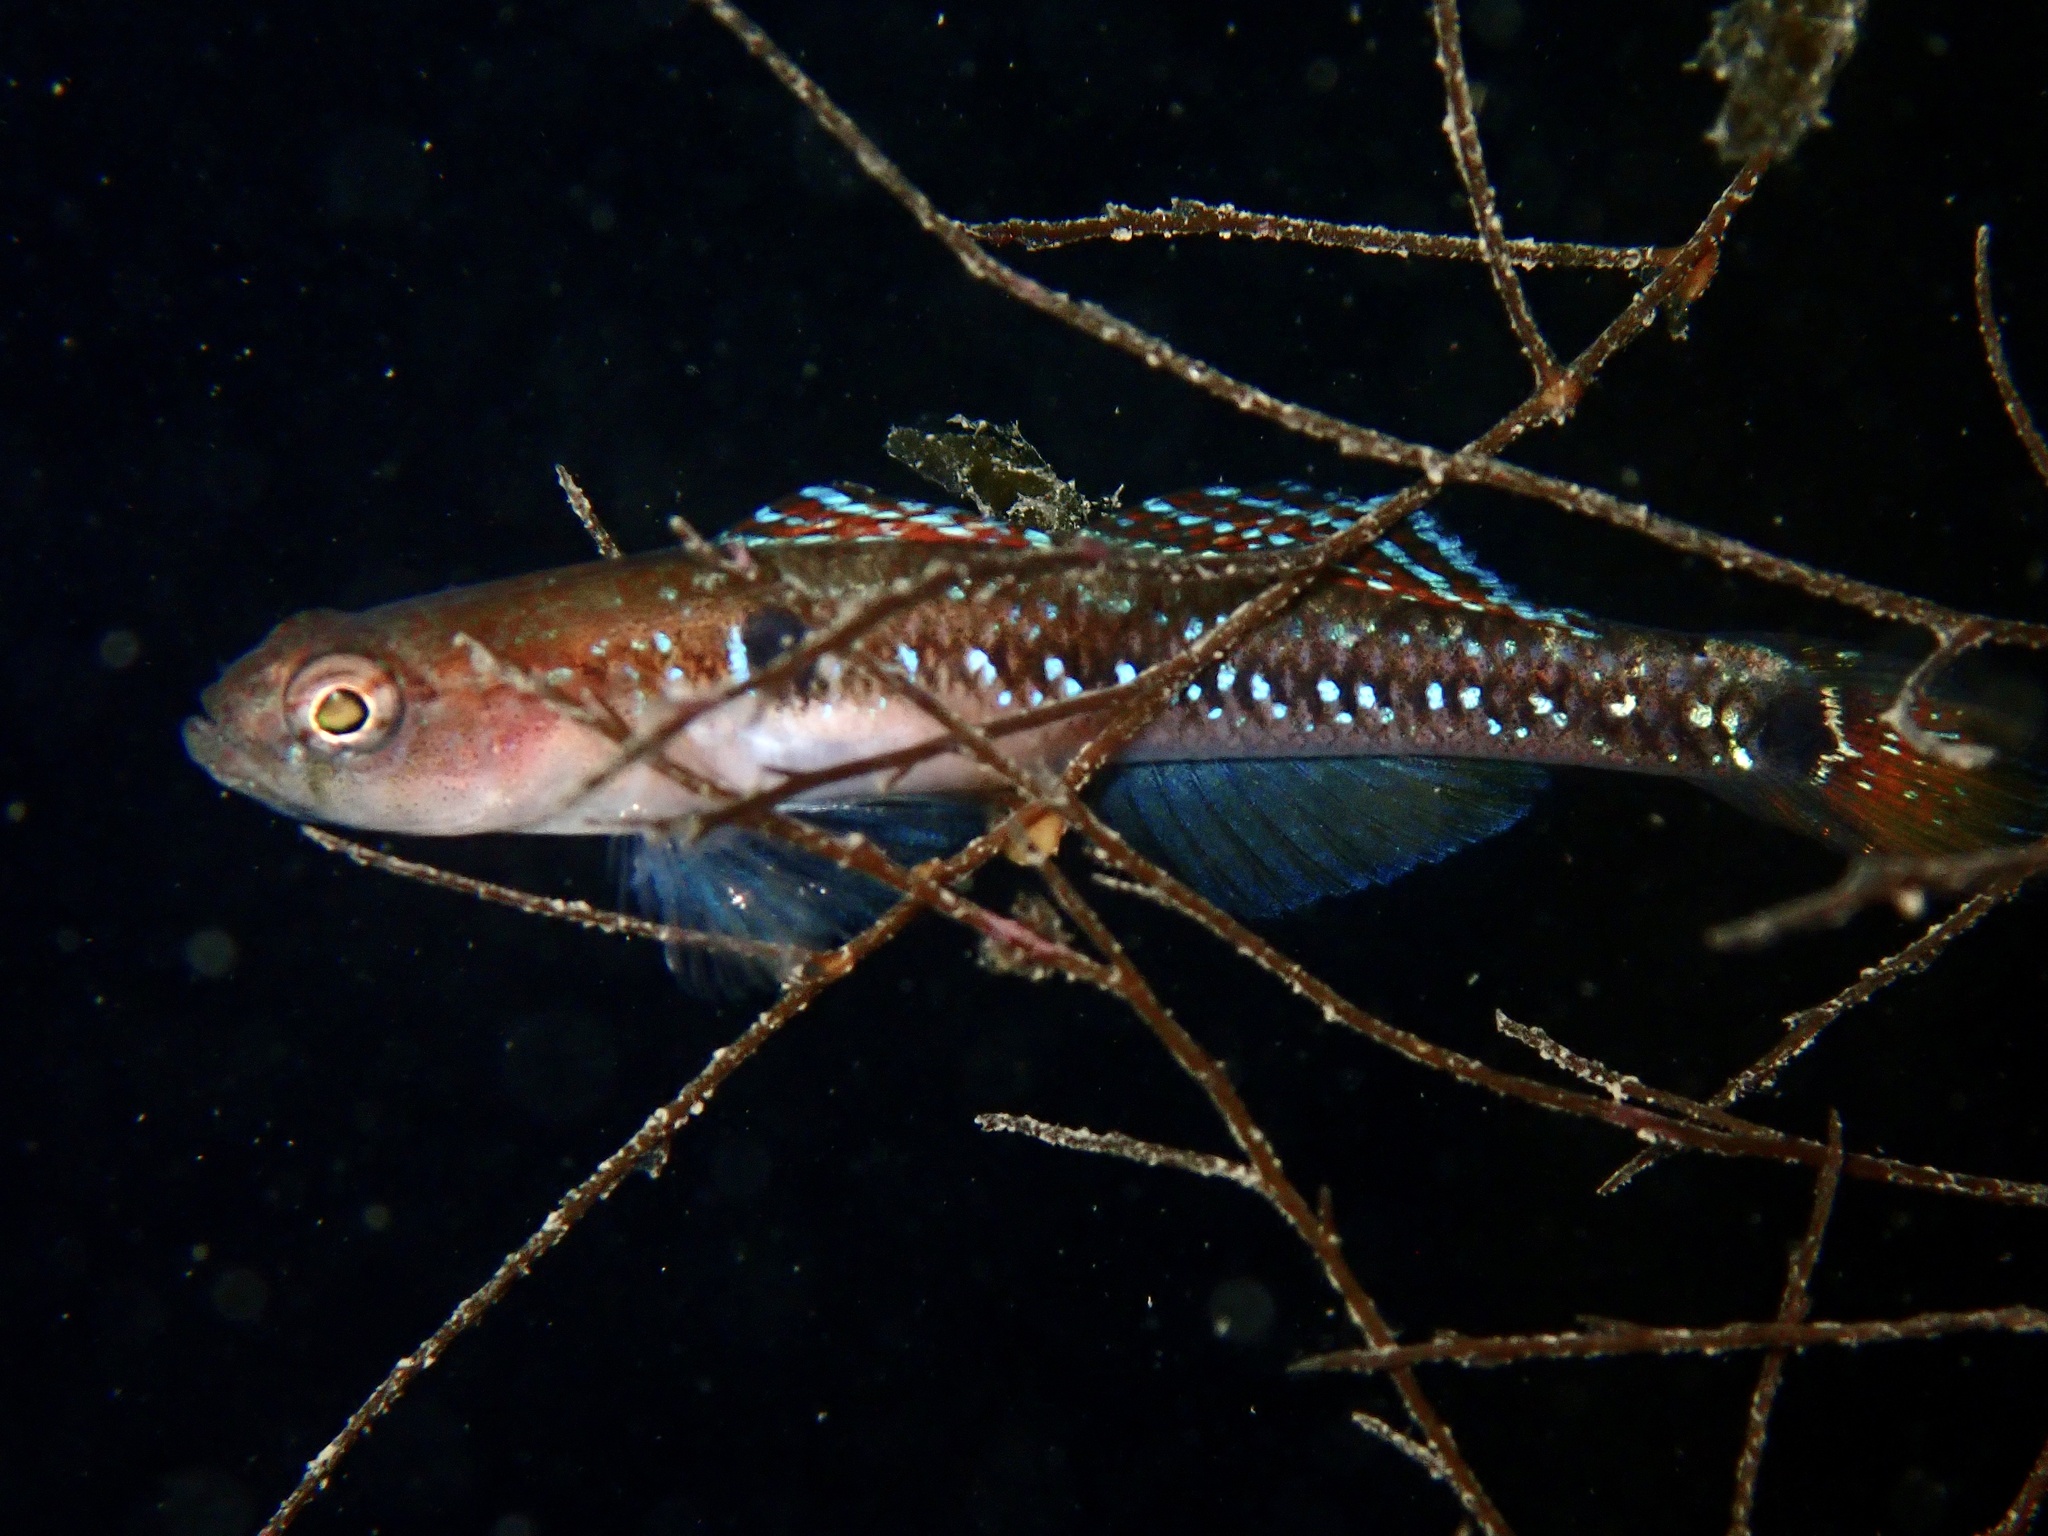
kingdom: Animalia
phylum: Chordata
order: Perciformes
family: Gobiidae
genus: Gobiusculus
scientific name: Gobiusculus flavescens
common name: Two-spotted goby
